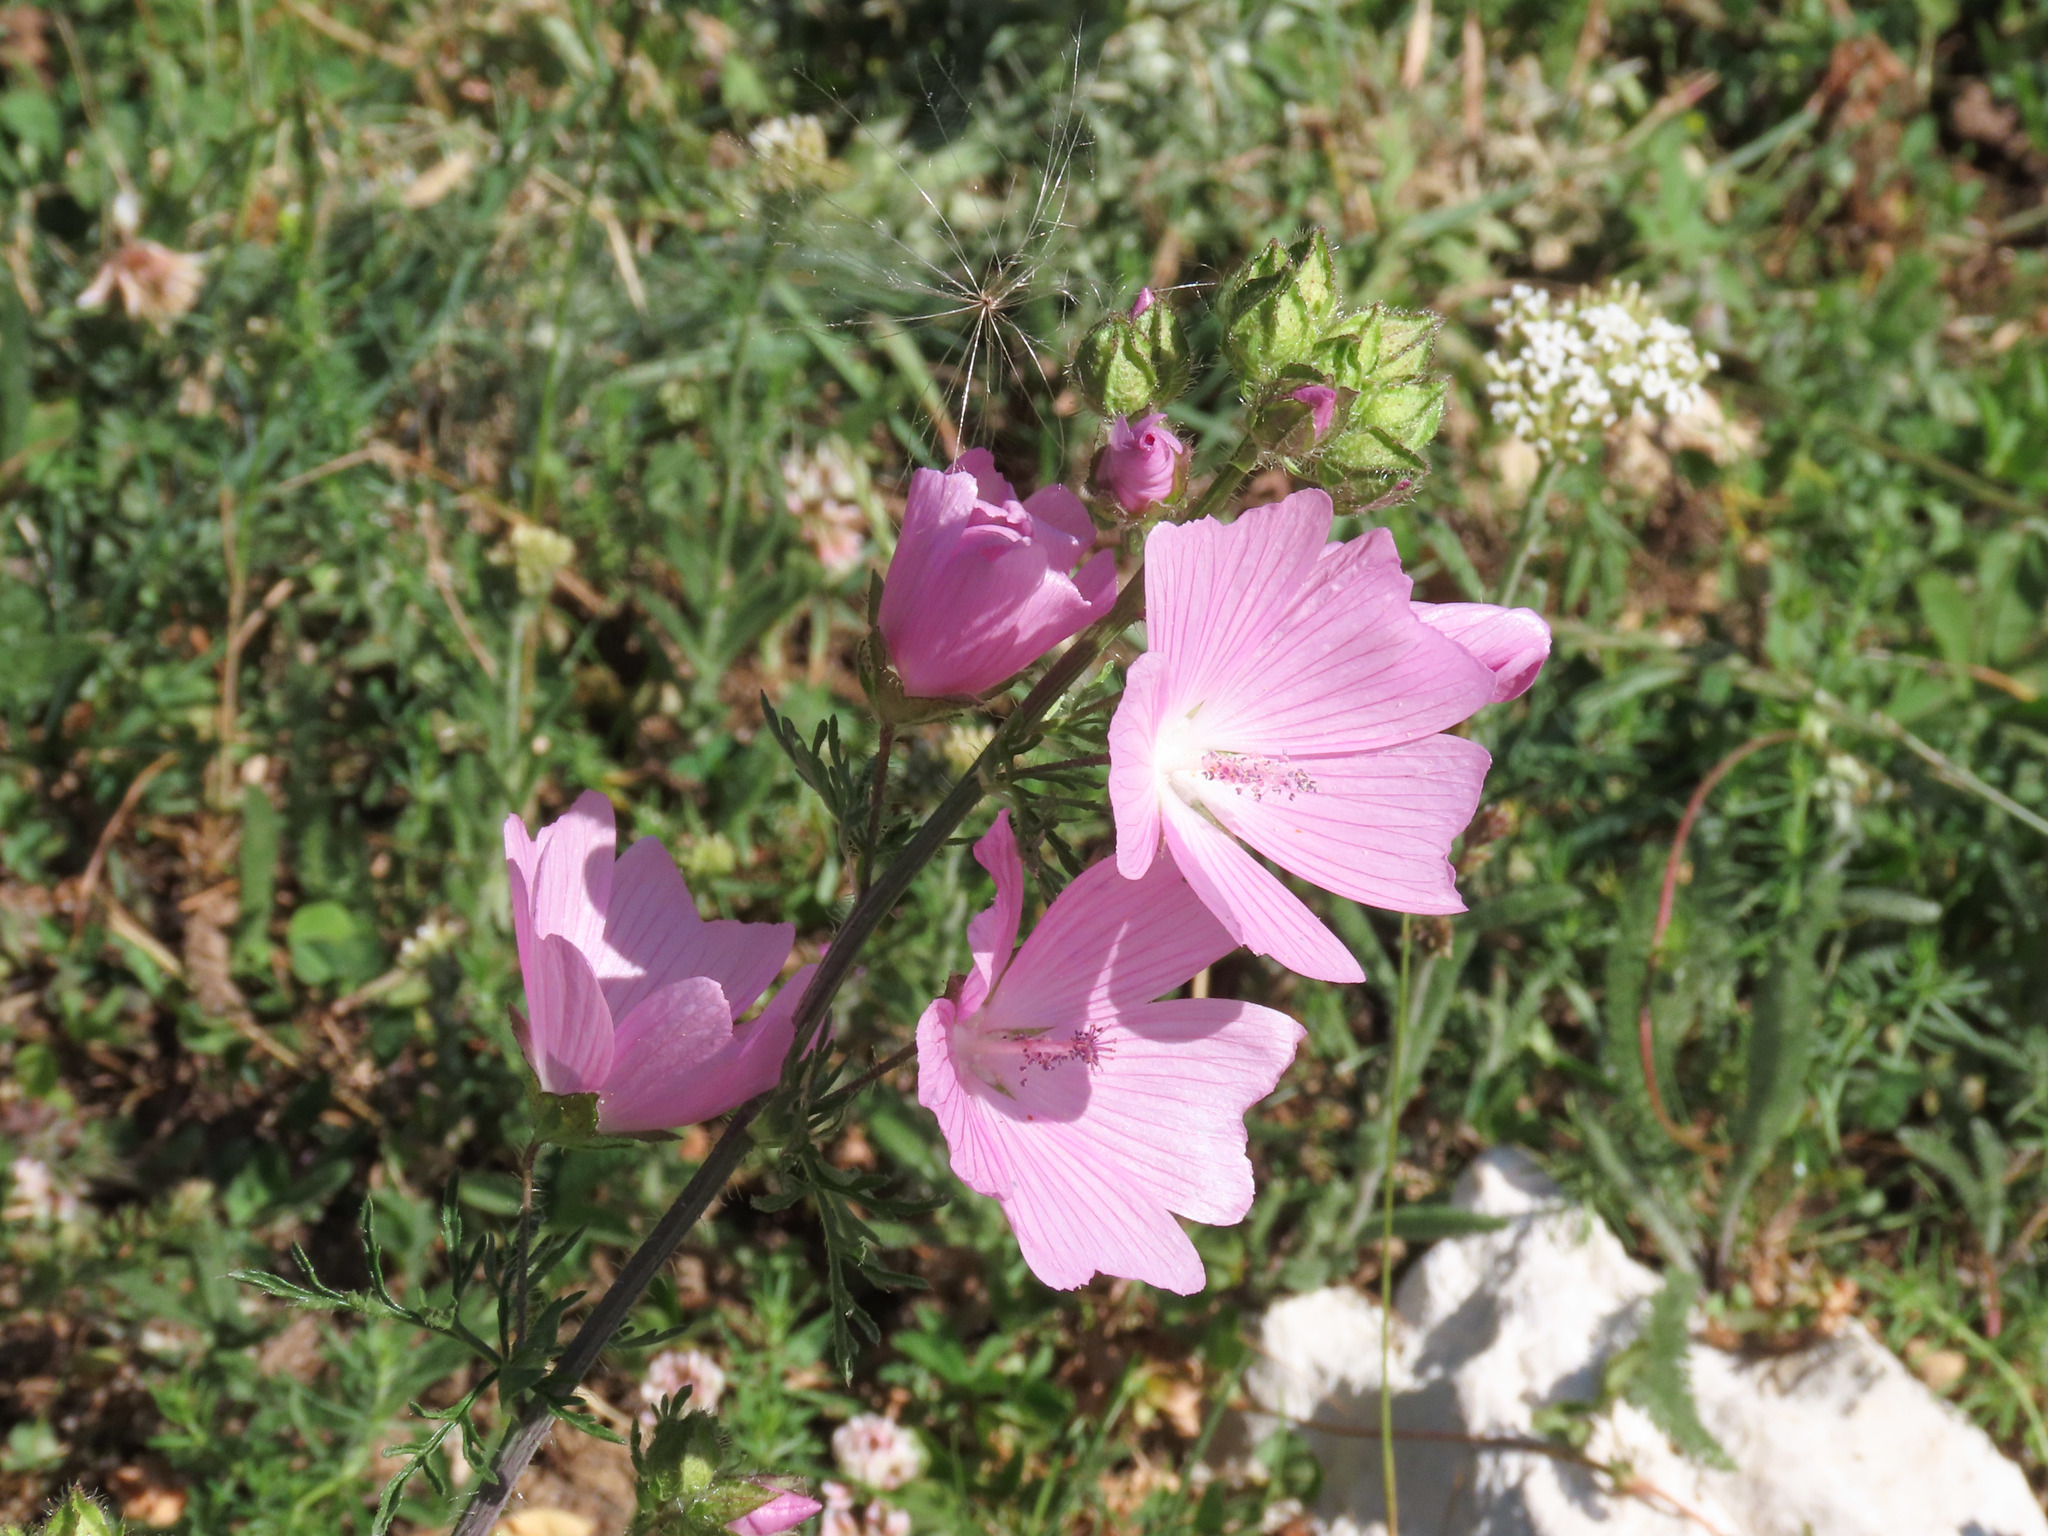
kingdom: Plantae
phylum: Tracheophyta
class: Magnoliopsida
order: Malvales
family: Malvaceae
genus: Malva
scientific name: Malva moschata
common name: Musk mallow
